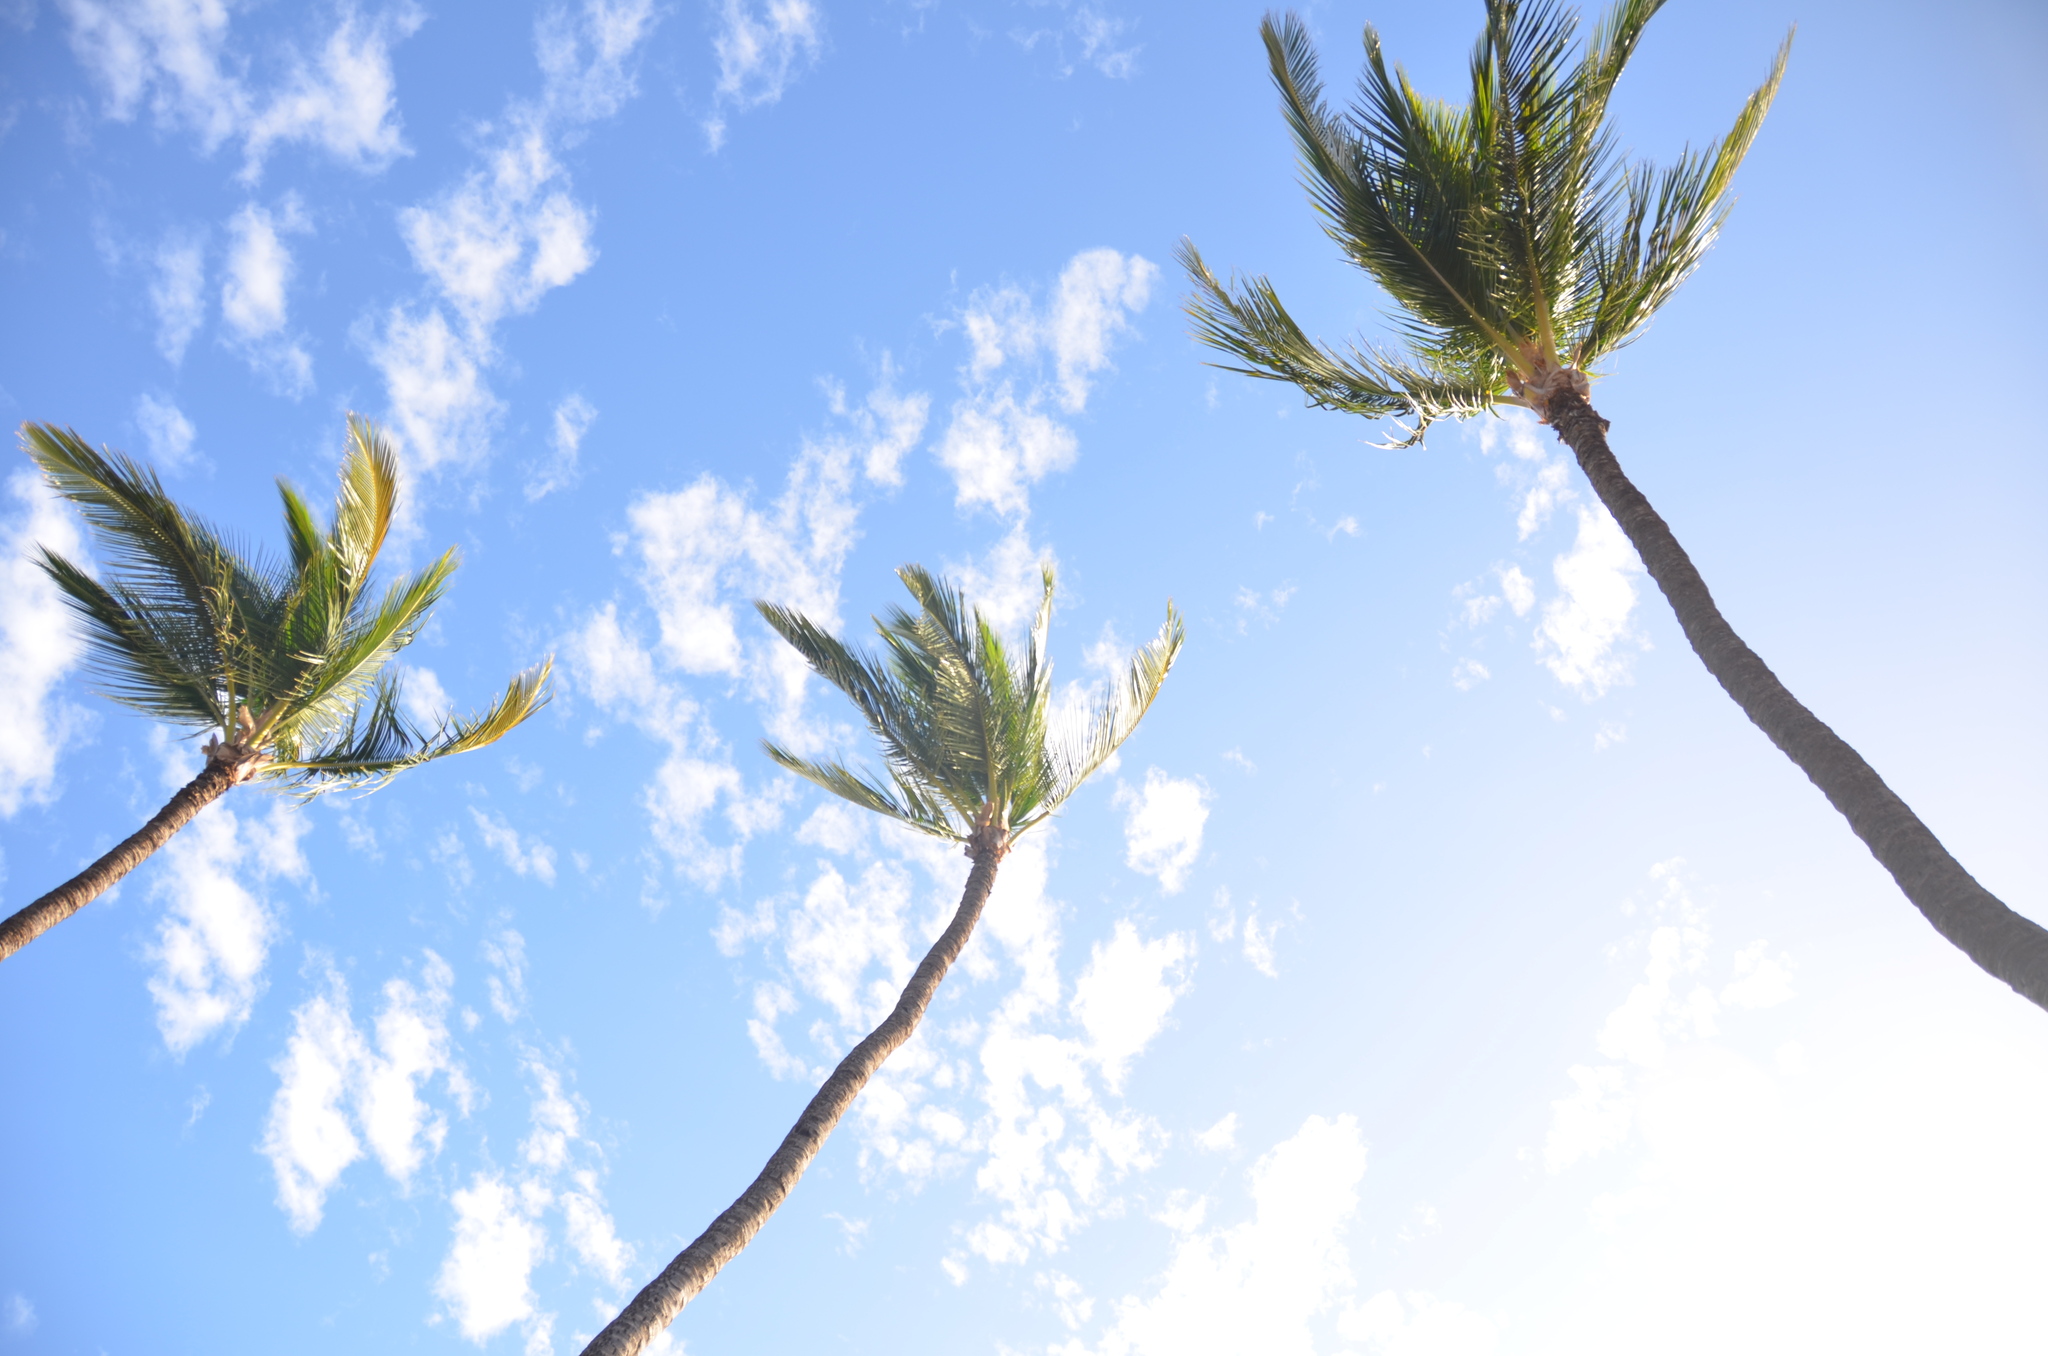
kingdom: Plantae
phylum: Tracheophyta
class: Liliopsida
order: Arecales
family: Arecaceae
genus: Cocos
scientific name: Cocos nucifera
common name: Coconut palm
